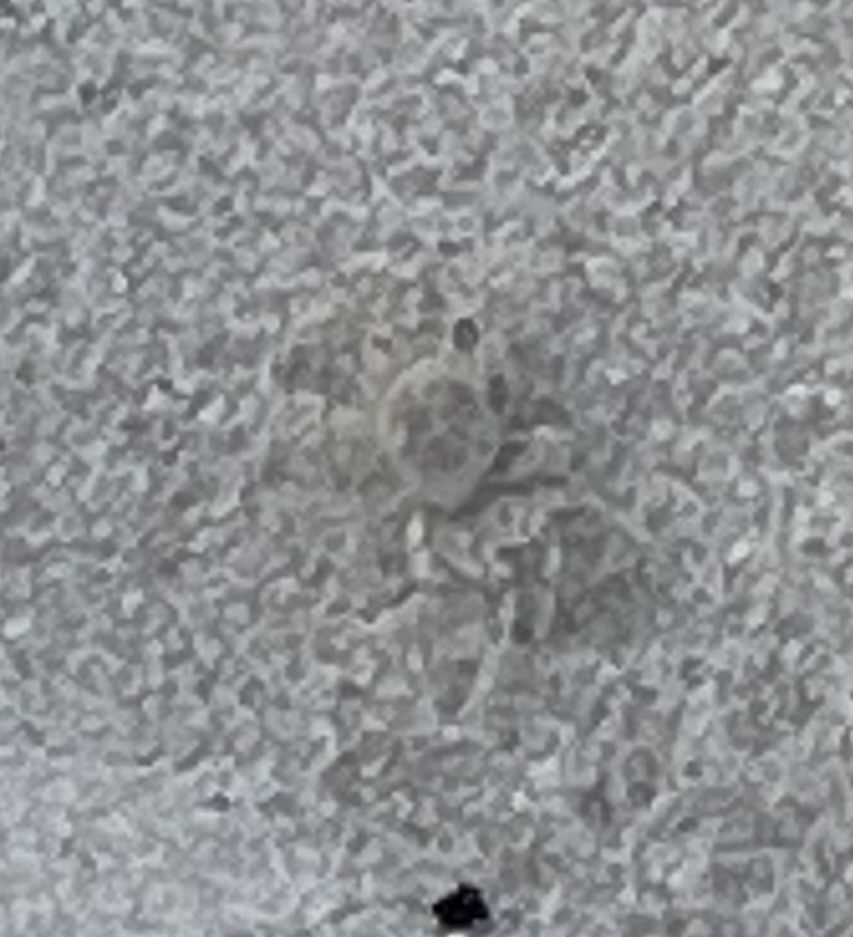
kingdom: Animalia
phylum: Arthropoda
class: Malacostraca
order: Decapoda
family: Ocypodidae
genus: Ocypode
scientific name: Ocypode quadrata
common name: Ghost crab
